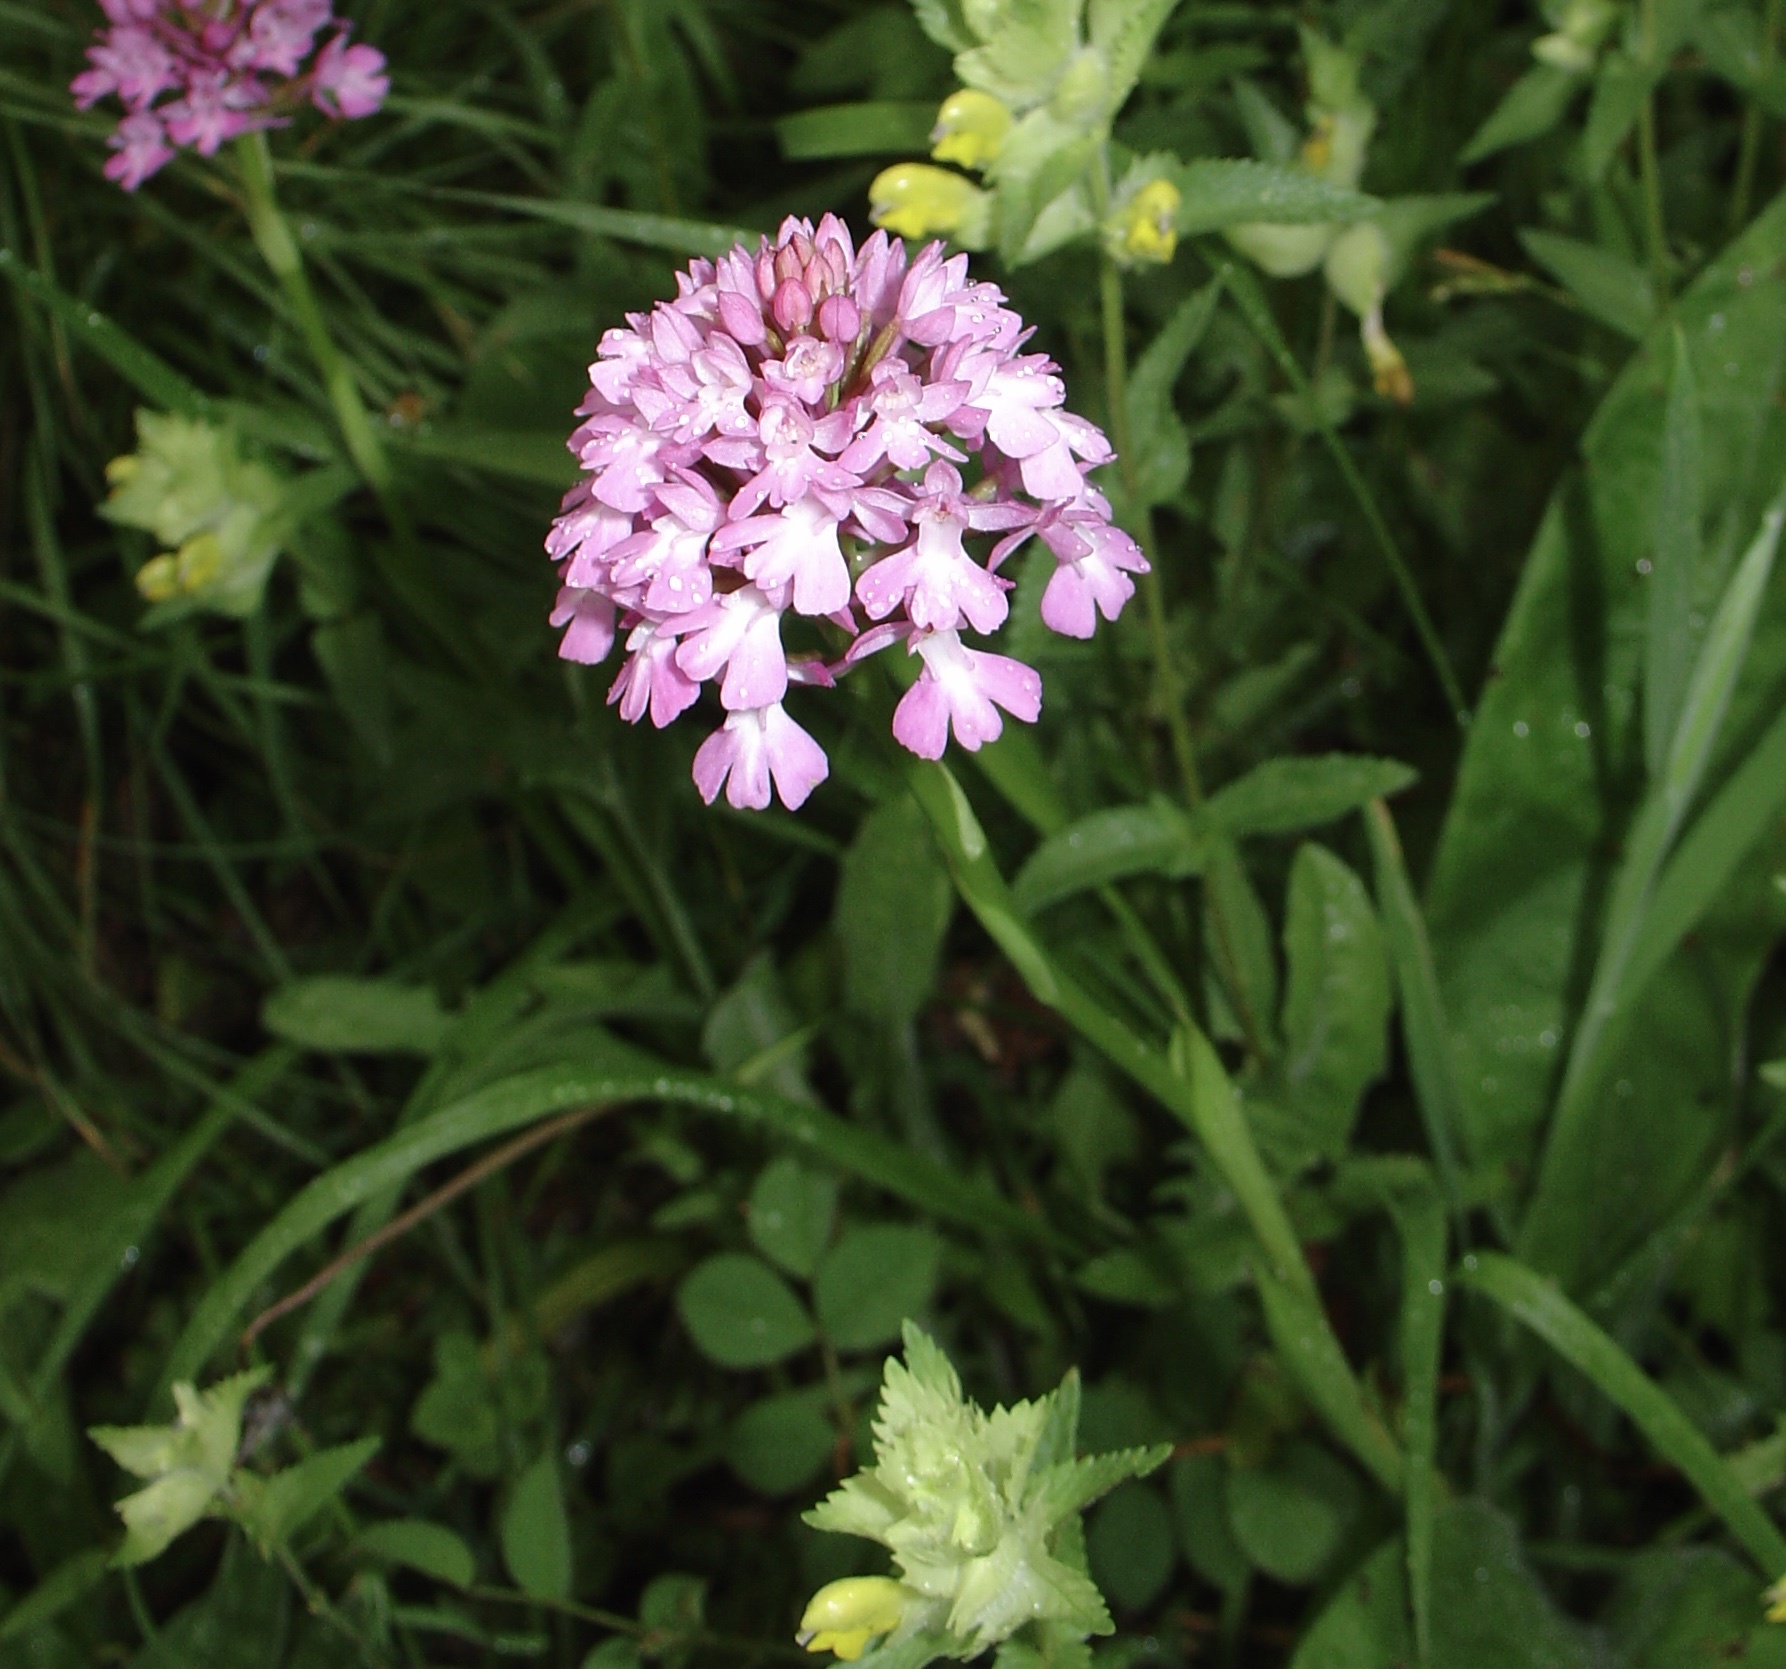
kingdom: Plantae
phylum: Tracheophyta
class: Liliopsida
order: Asparagales
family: Orchidaceae
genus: Anacamptis
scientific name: Anacamptis pyramidalis
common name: Pyramidal orchid
